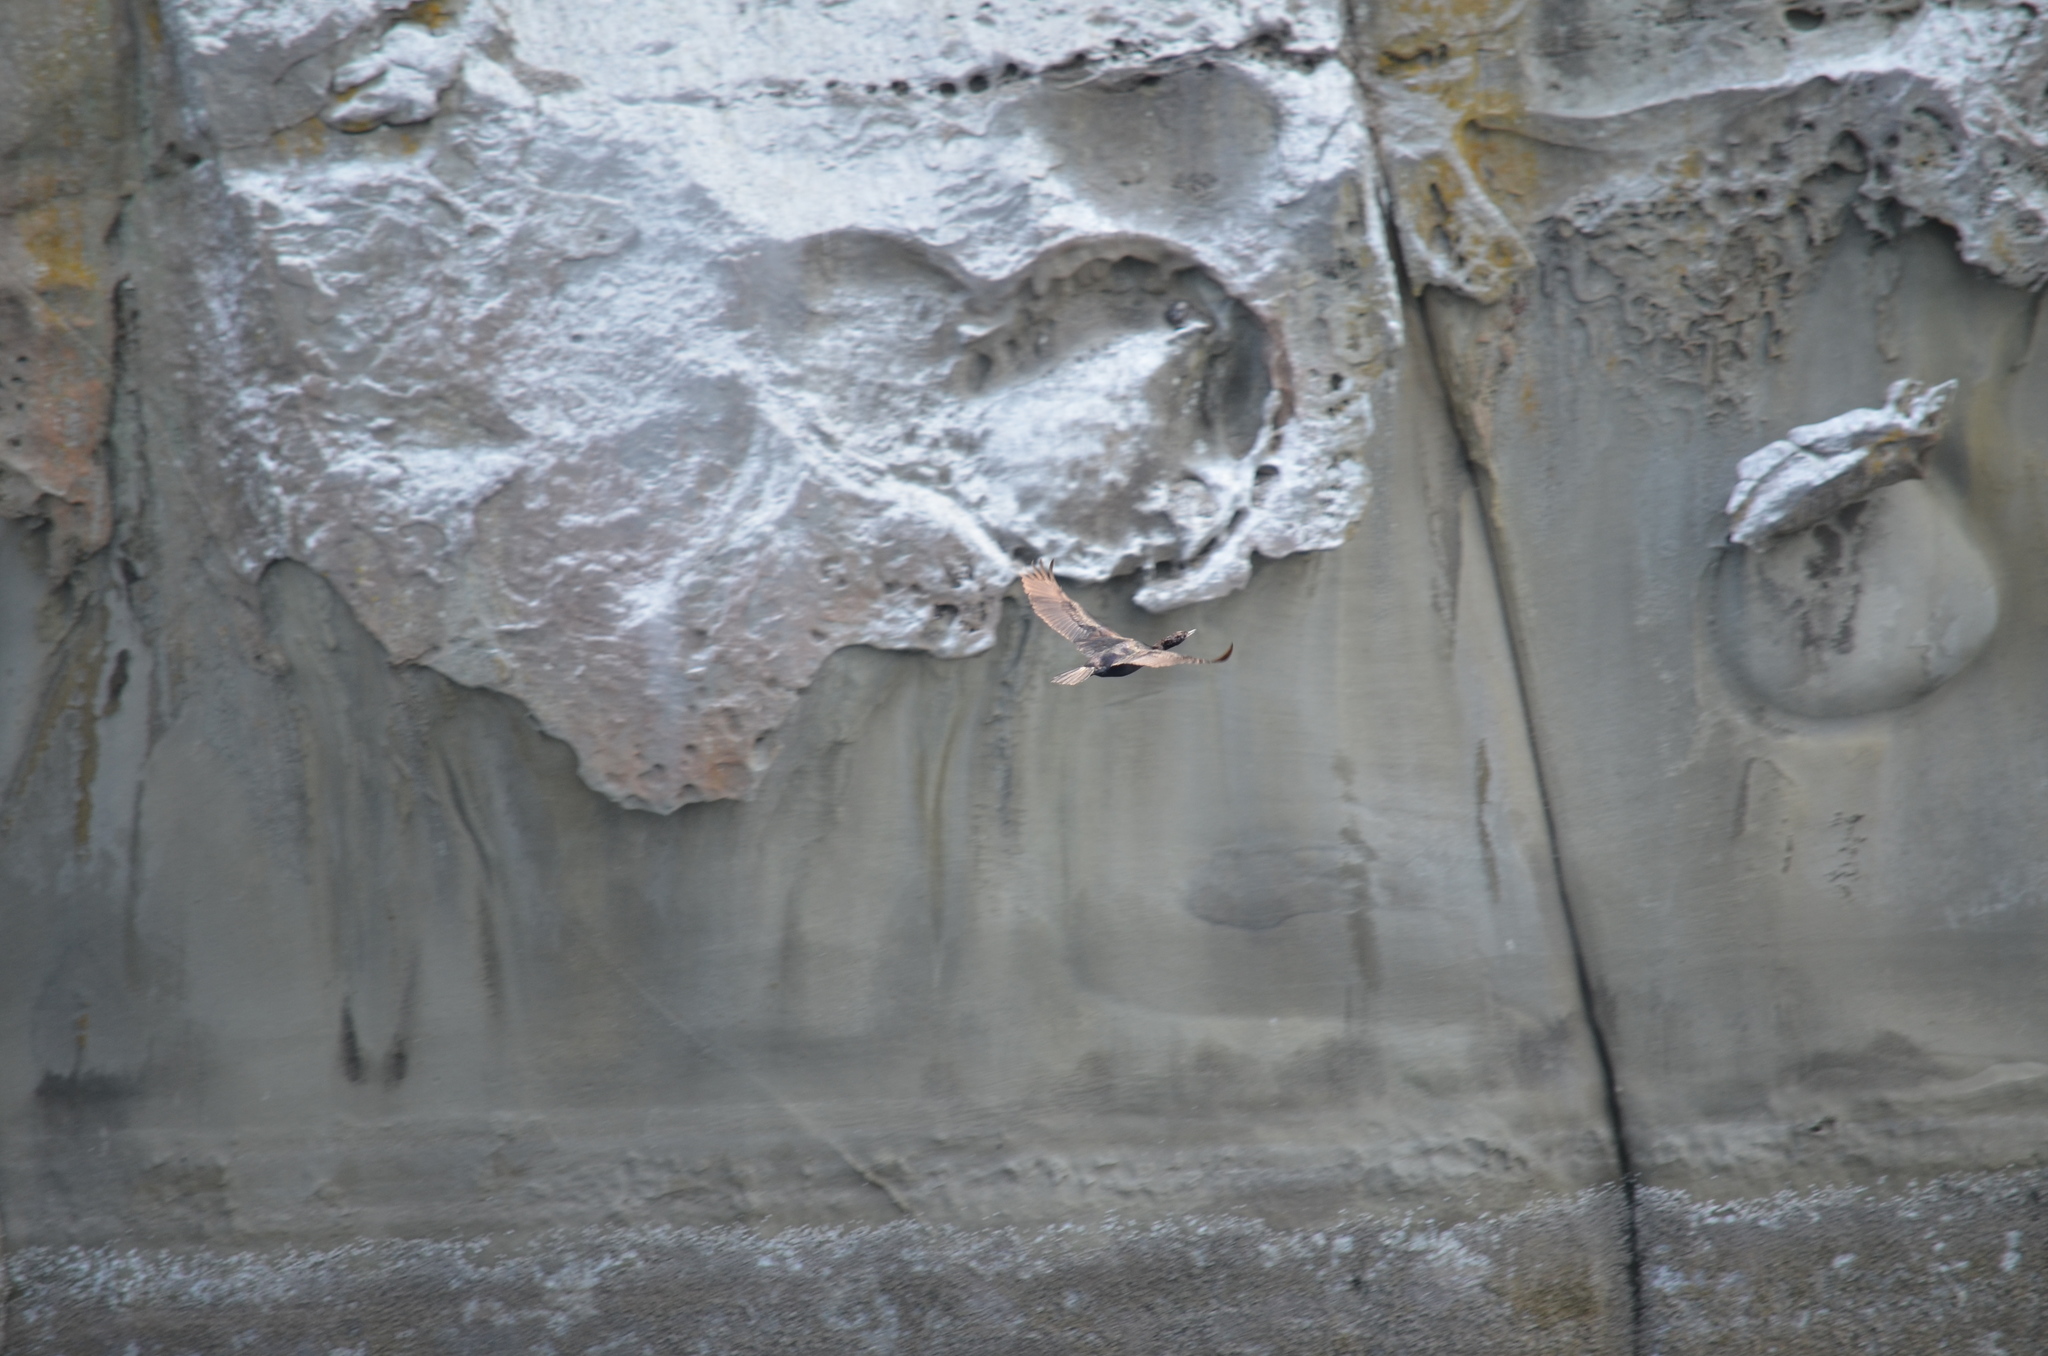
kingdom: Animalia
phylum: Chordata
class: Aves
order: Suliformes
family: Phalacrocoracidae
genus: Phalacrocorax
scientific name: Phalacrocorax pelagicus
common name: Pelagic cormorant
